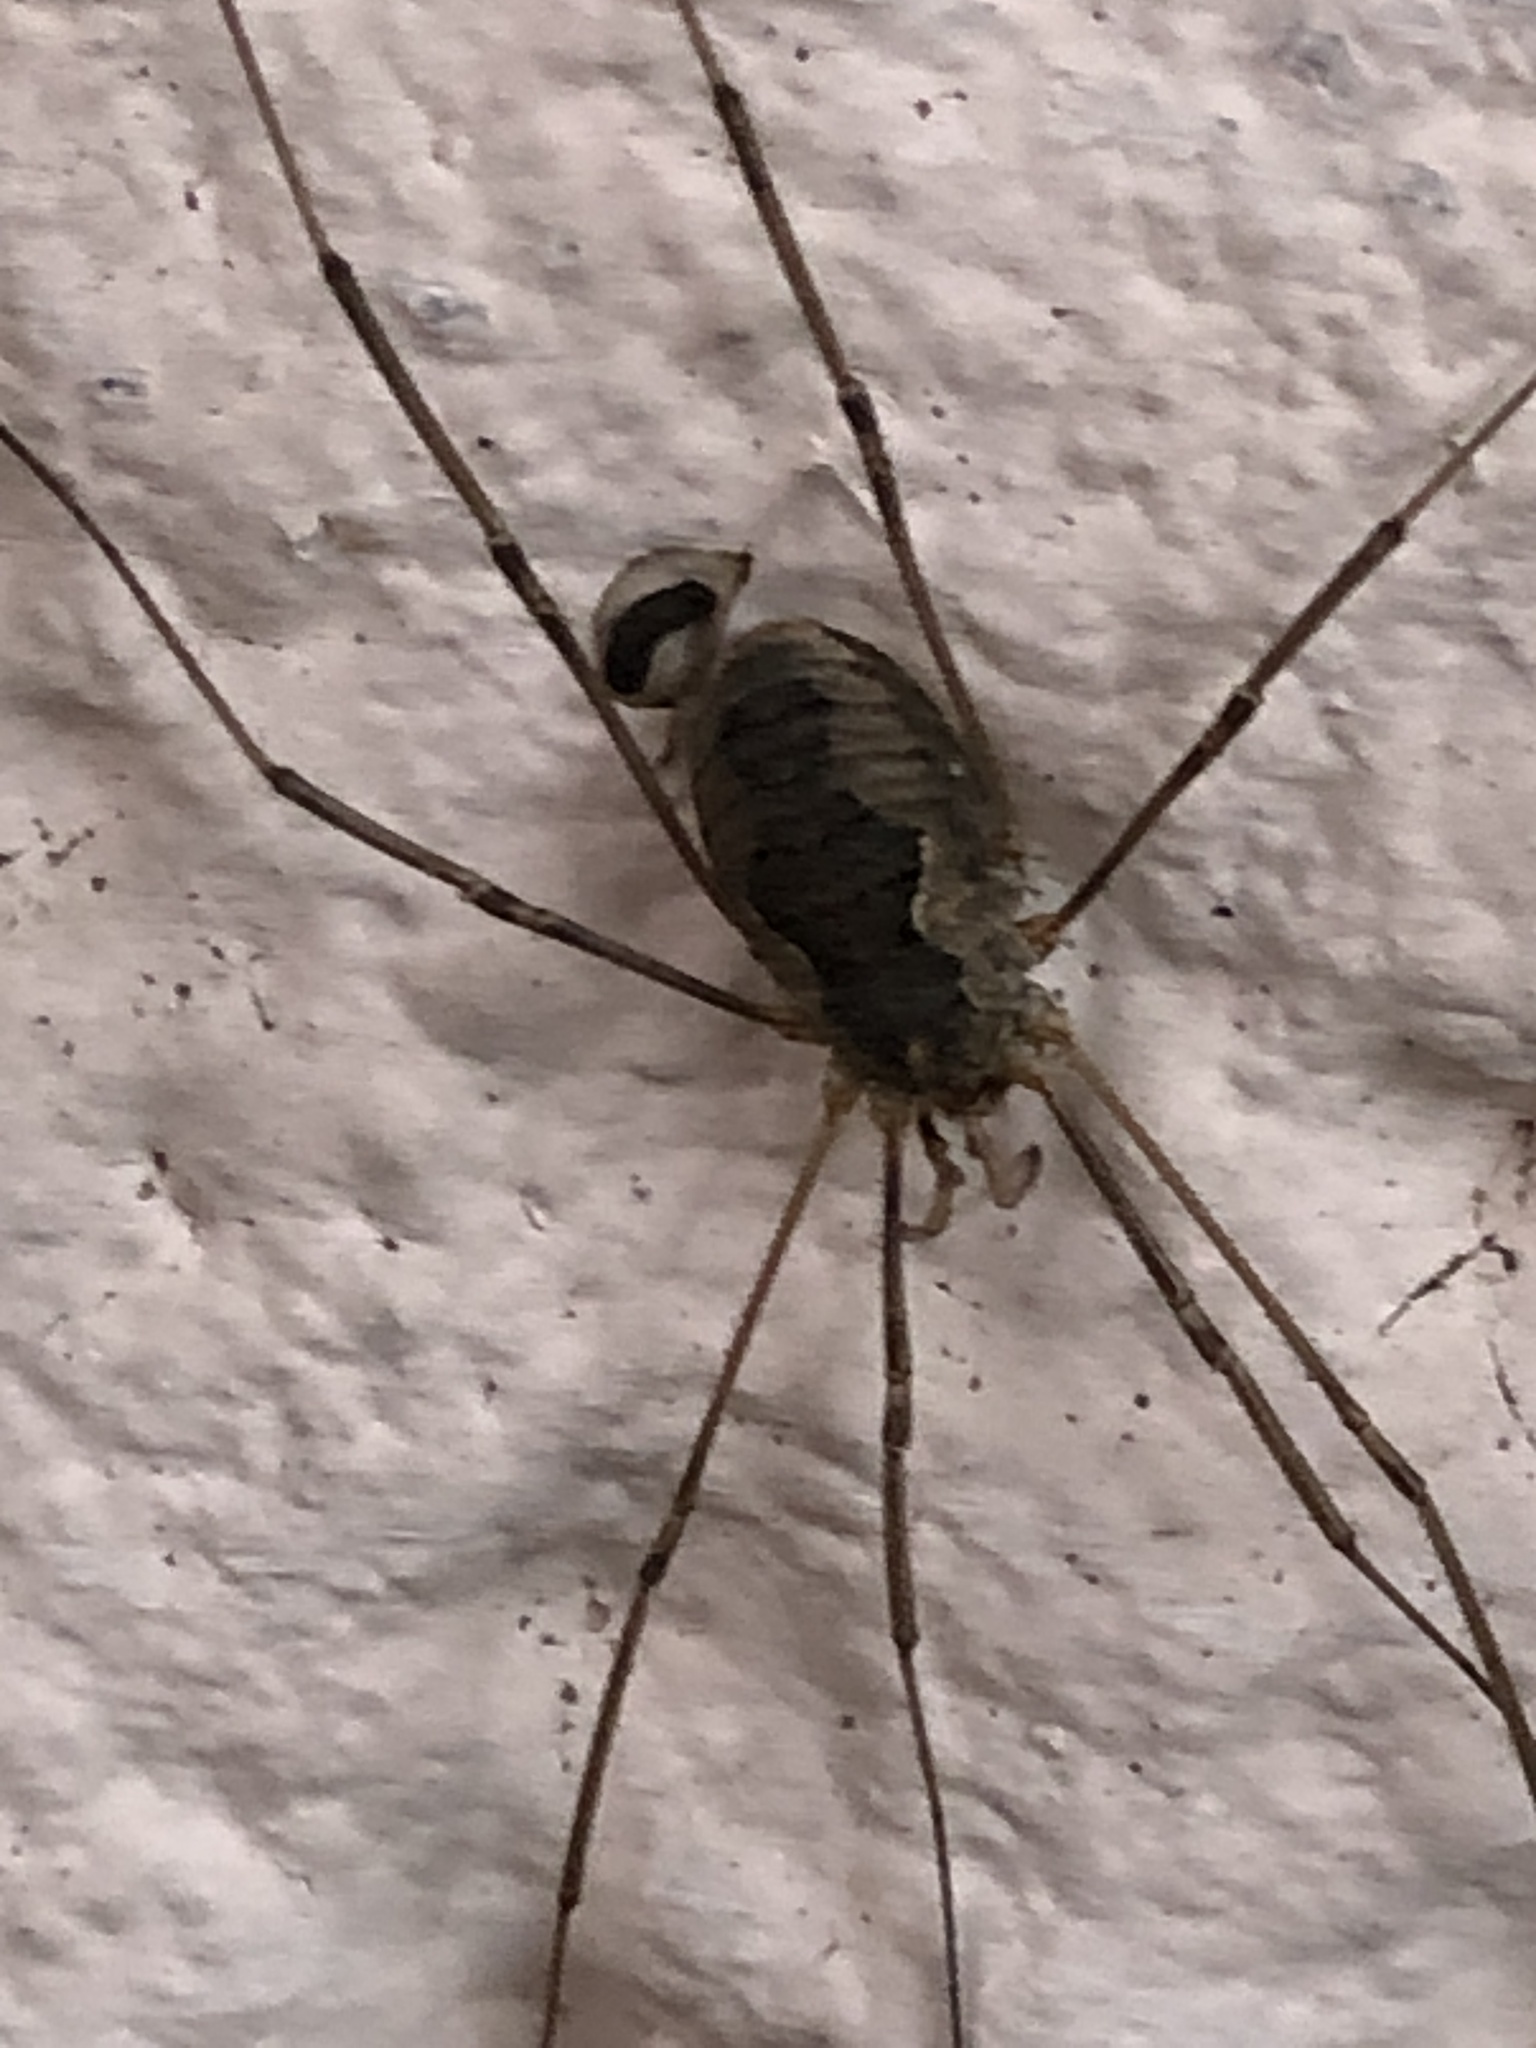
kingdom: Animalia
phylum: Arthropoda
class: Arachnida
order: Opiliones
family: Phalangiidae
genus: Phalangium
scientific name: Phalangium opilio
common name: Daddy longleg
